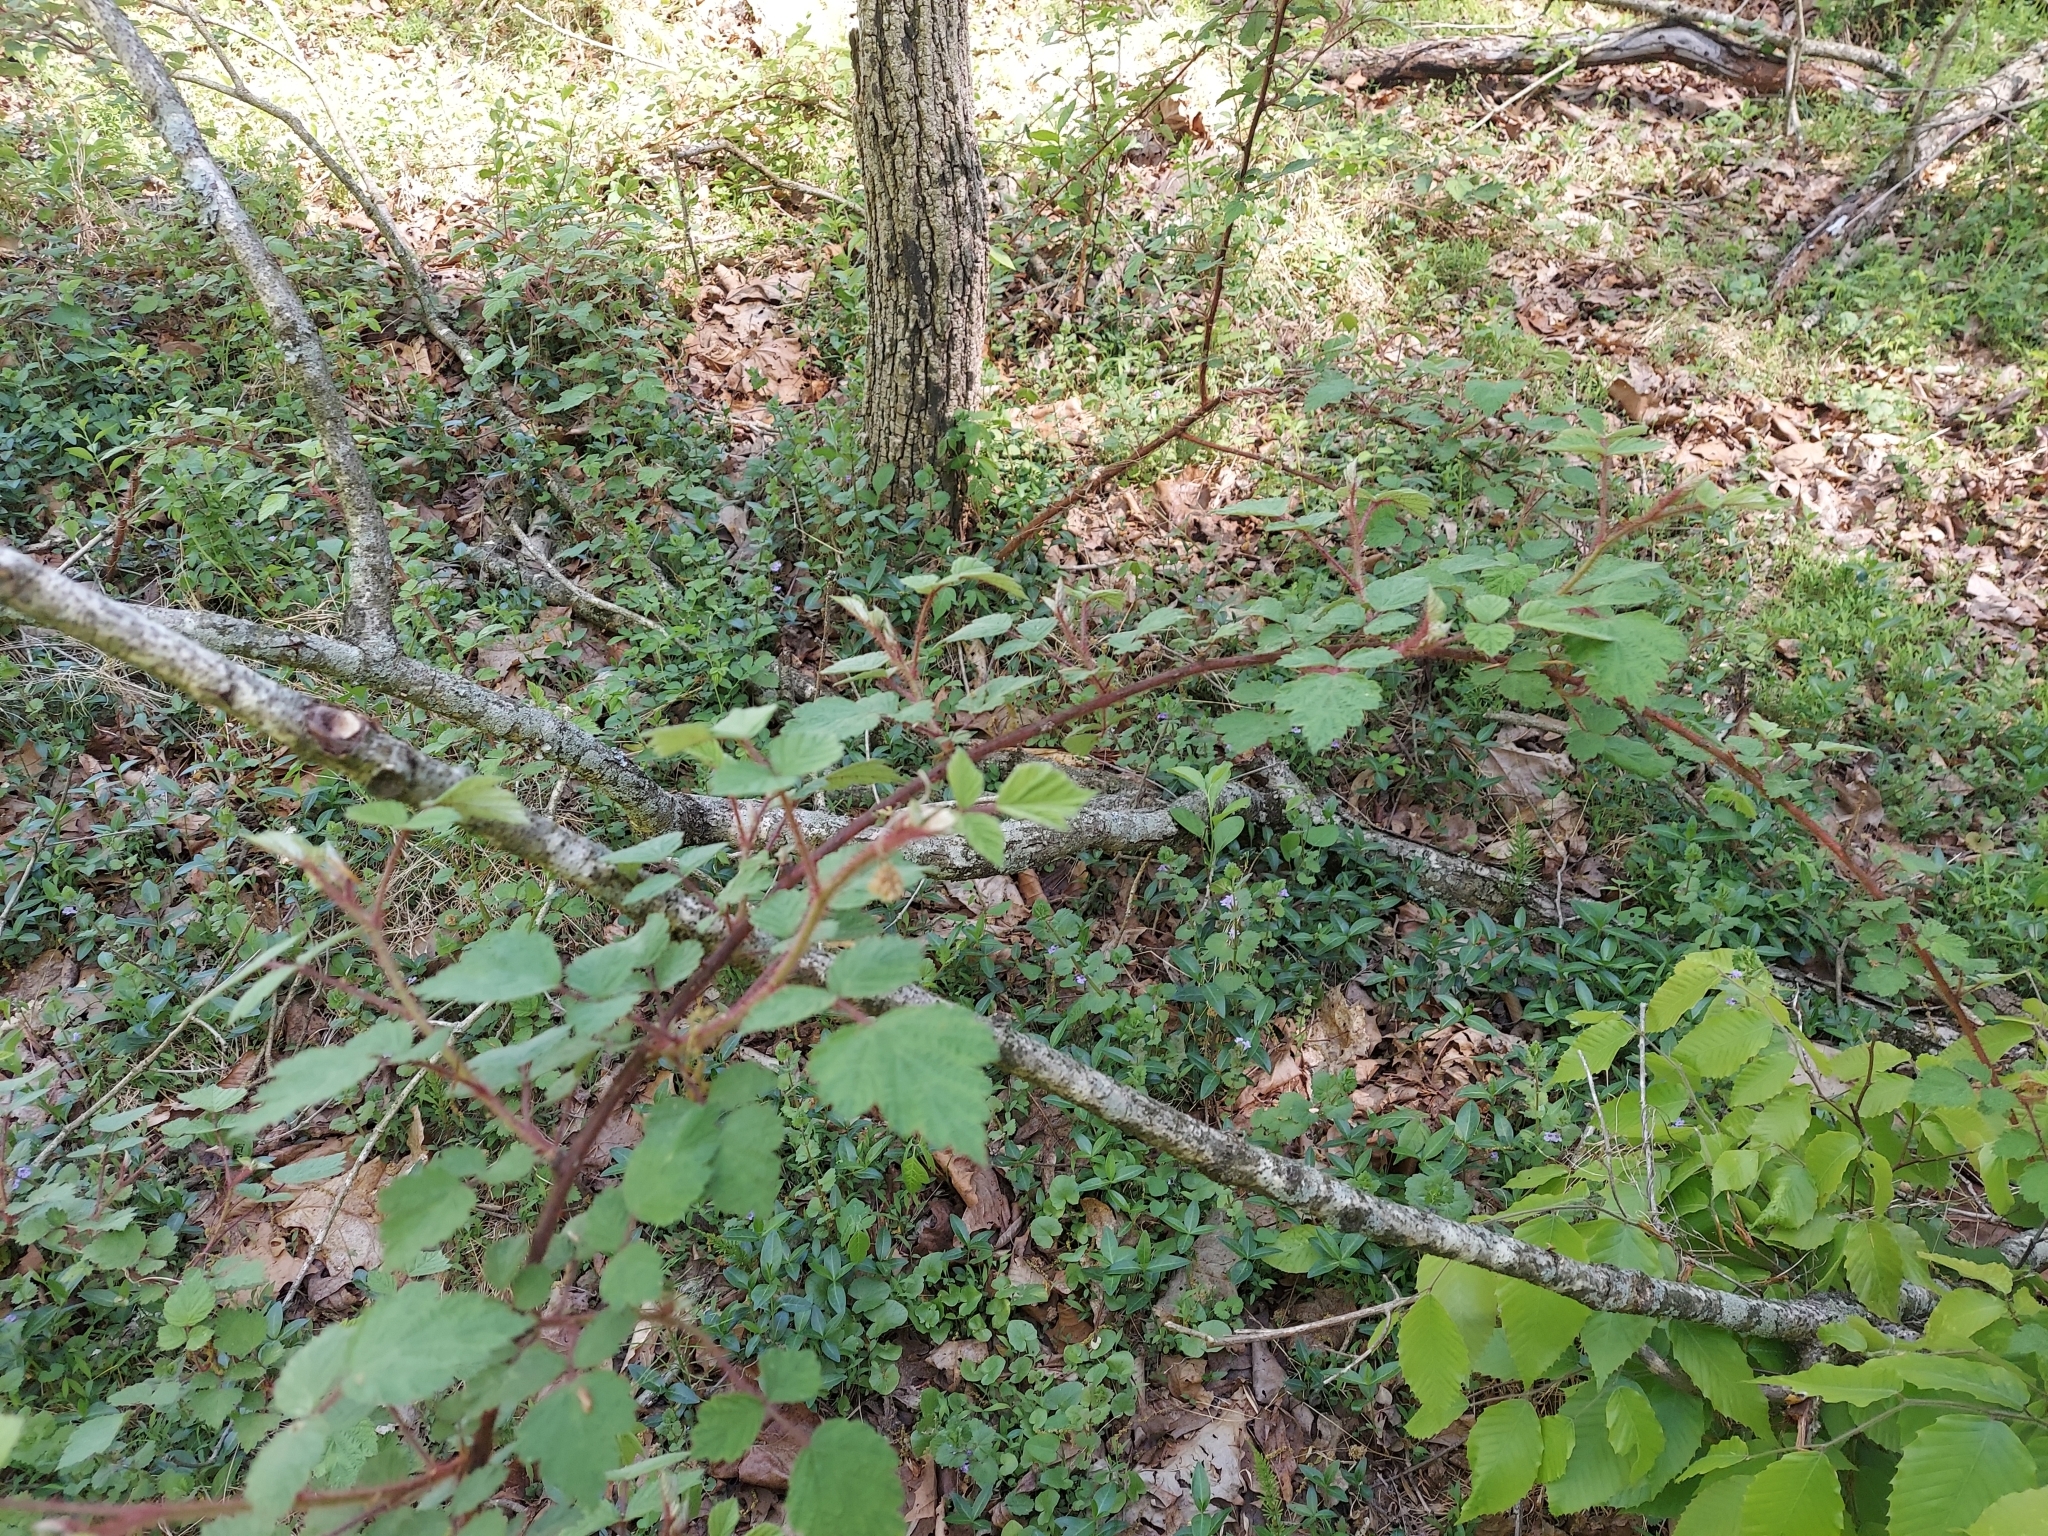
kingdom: Plantae
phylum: Tracheophyta
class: Magnoliopsida
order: Rosales
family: Rosaceae
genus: Rubus
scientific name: Rubus phoenicolasius
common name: Japanese wineberry
